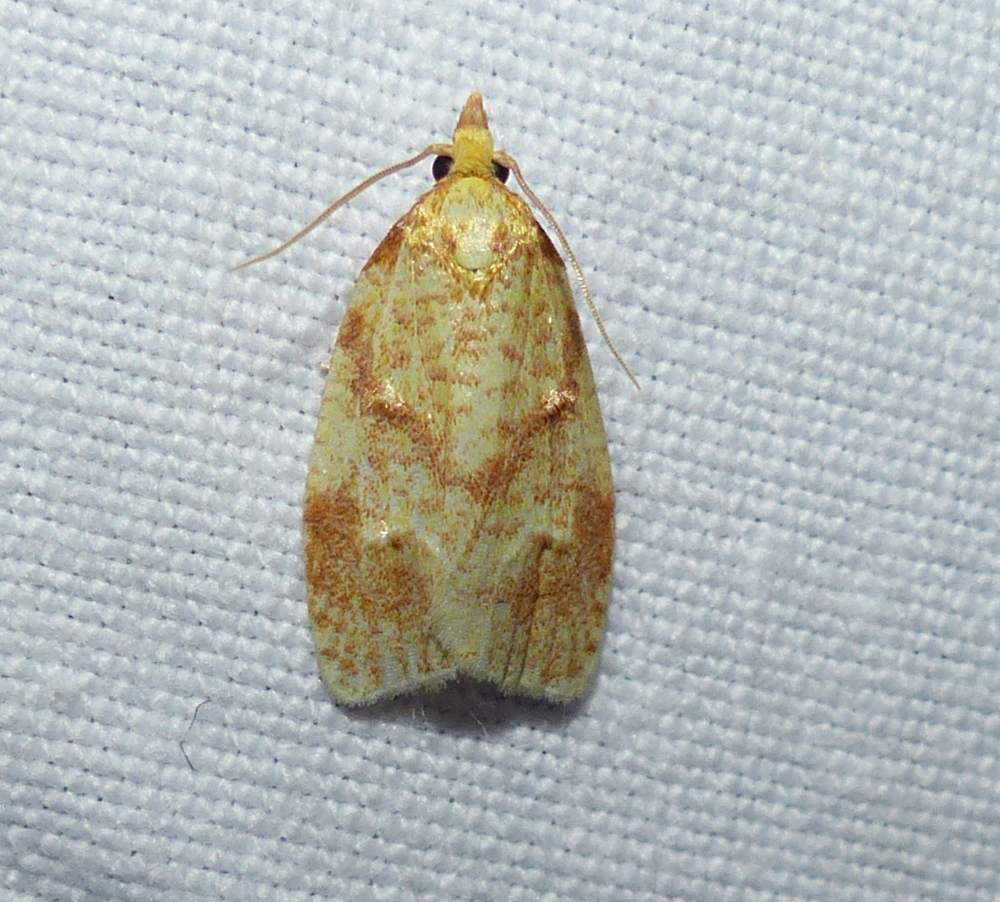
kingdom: Animalia
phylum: Arthropoda
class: Insecta
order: Lepidoptera
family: Tortricidae
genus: Cenopis
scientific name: Cenopis pettitana
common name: Maple-basswood leafroller moth
